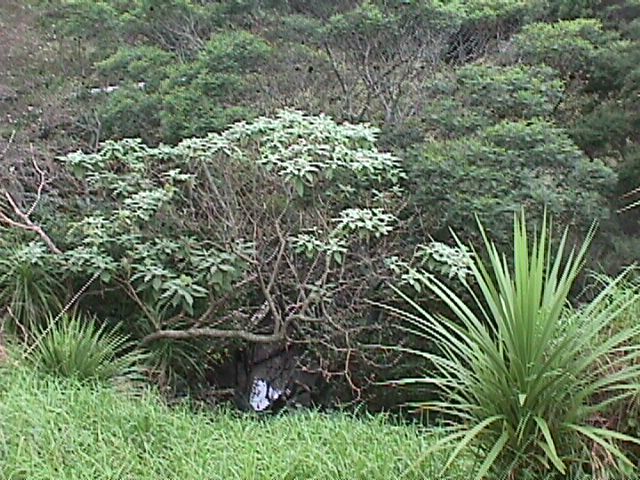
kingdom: Plantae
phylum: Tracheophyta
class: Magnoliopsida
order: Solanales
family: Solanaceae
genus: Solanum
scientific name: Solanum mauritianum
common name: Earleaf nightshade
